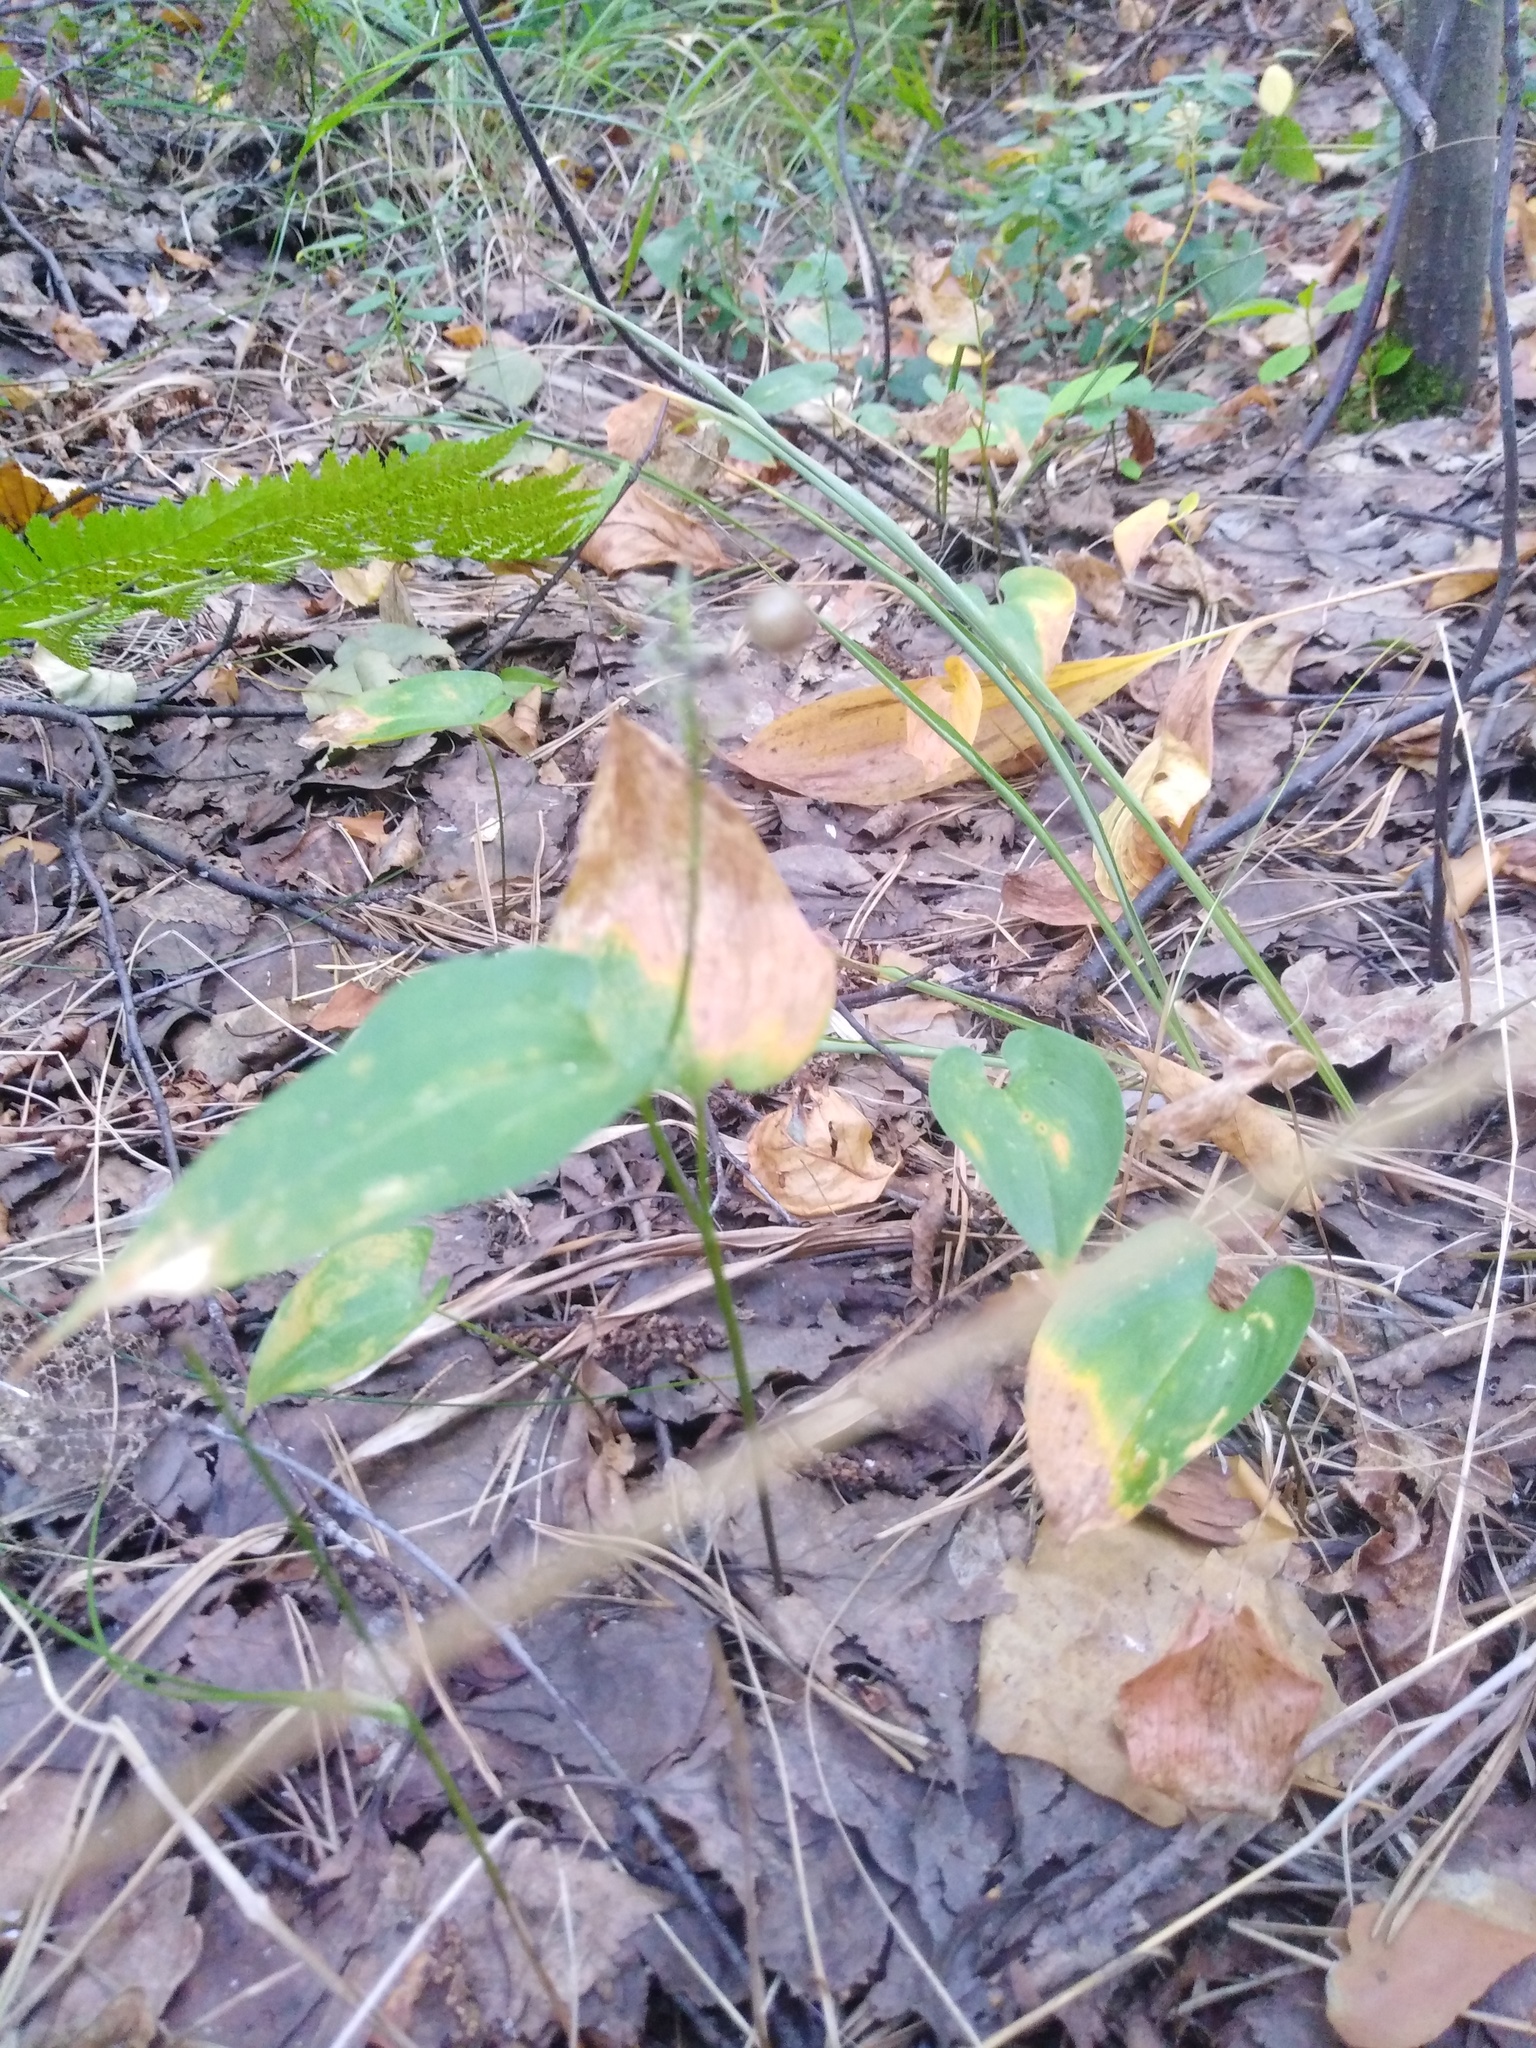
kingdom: Plantae
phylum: Tracheophyta
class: Liliopsida
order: Asparagales
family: Asparagaceae
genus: Maianthemum
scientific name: Maianthemum bifolium
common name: May lily
